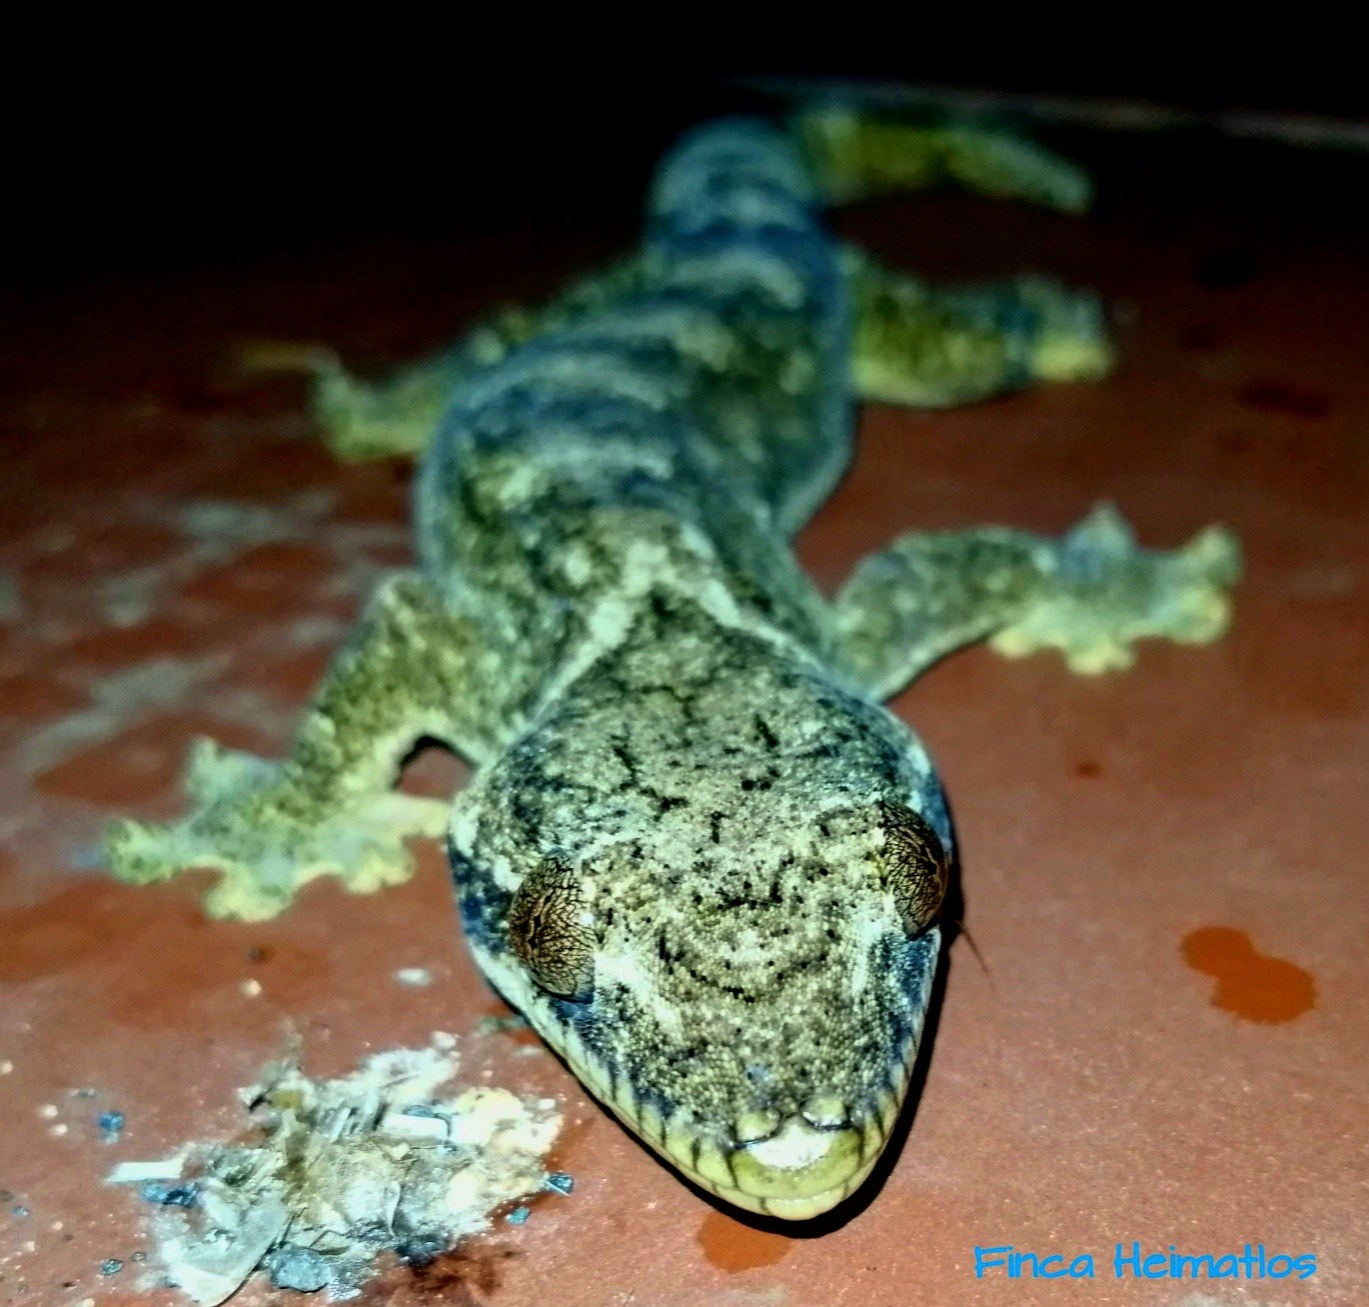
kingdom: Animalia
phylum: Chordata
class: Squamata
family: Phyllodactylidae
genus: Thecadactylus
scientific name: Thecadactylus solimoensis
